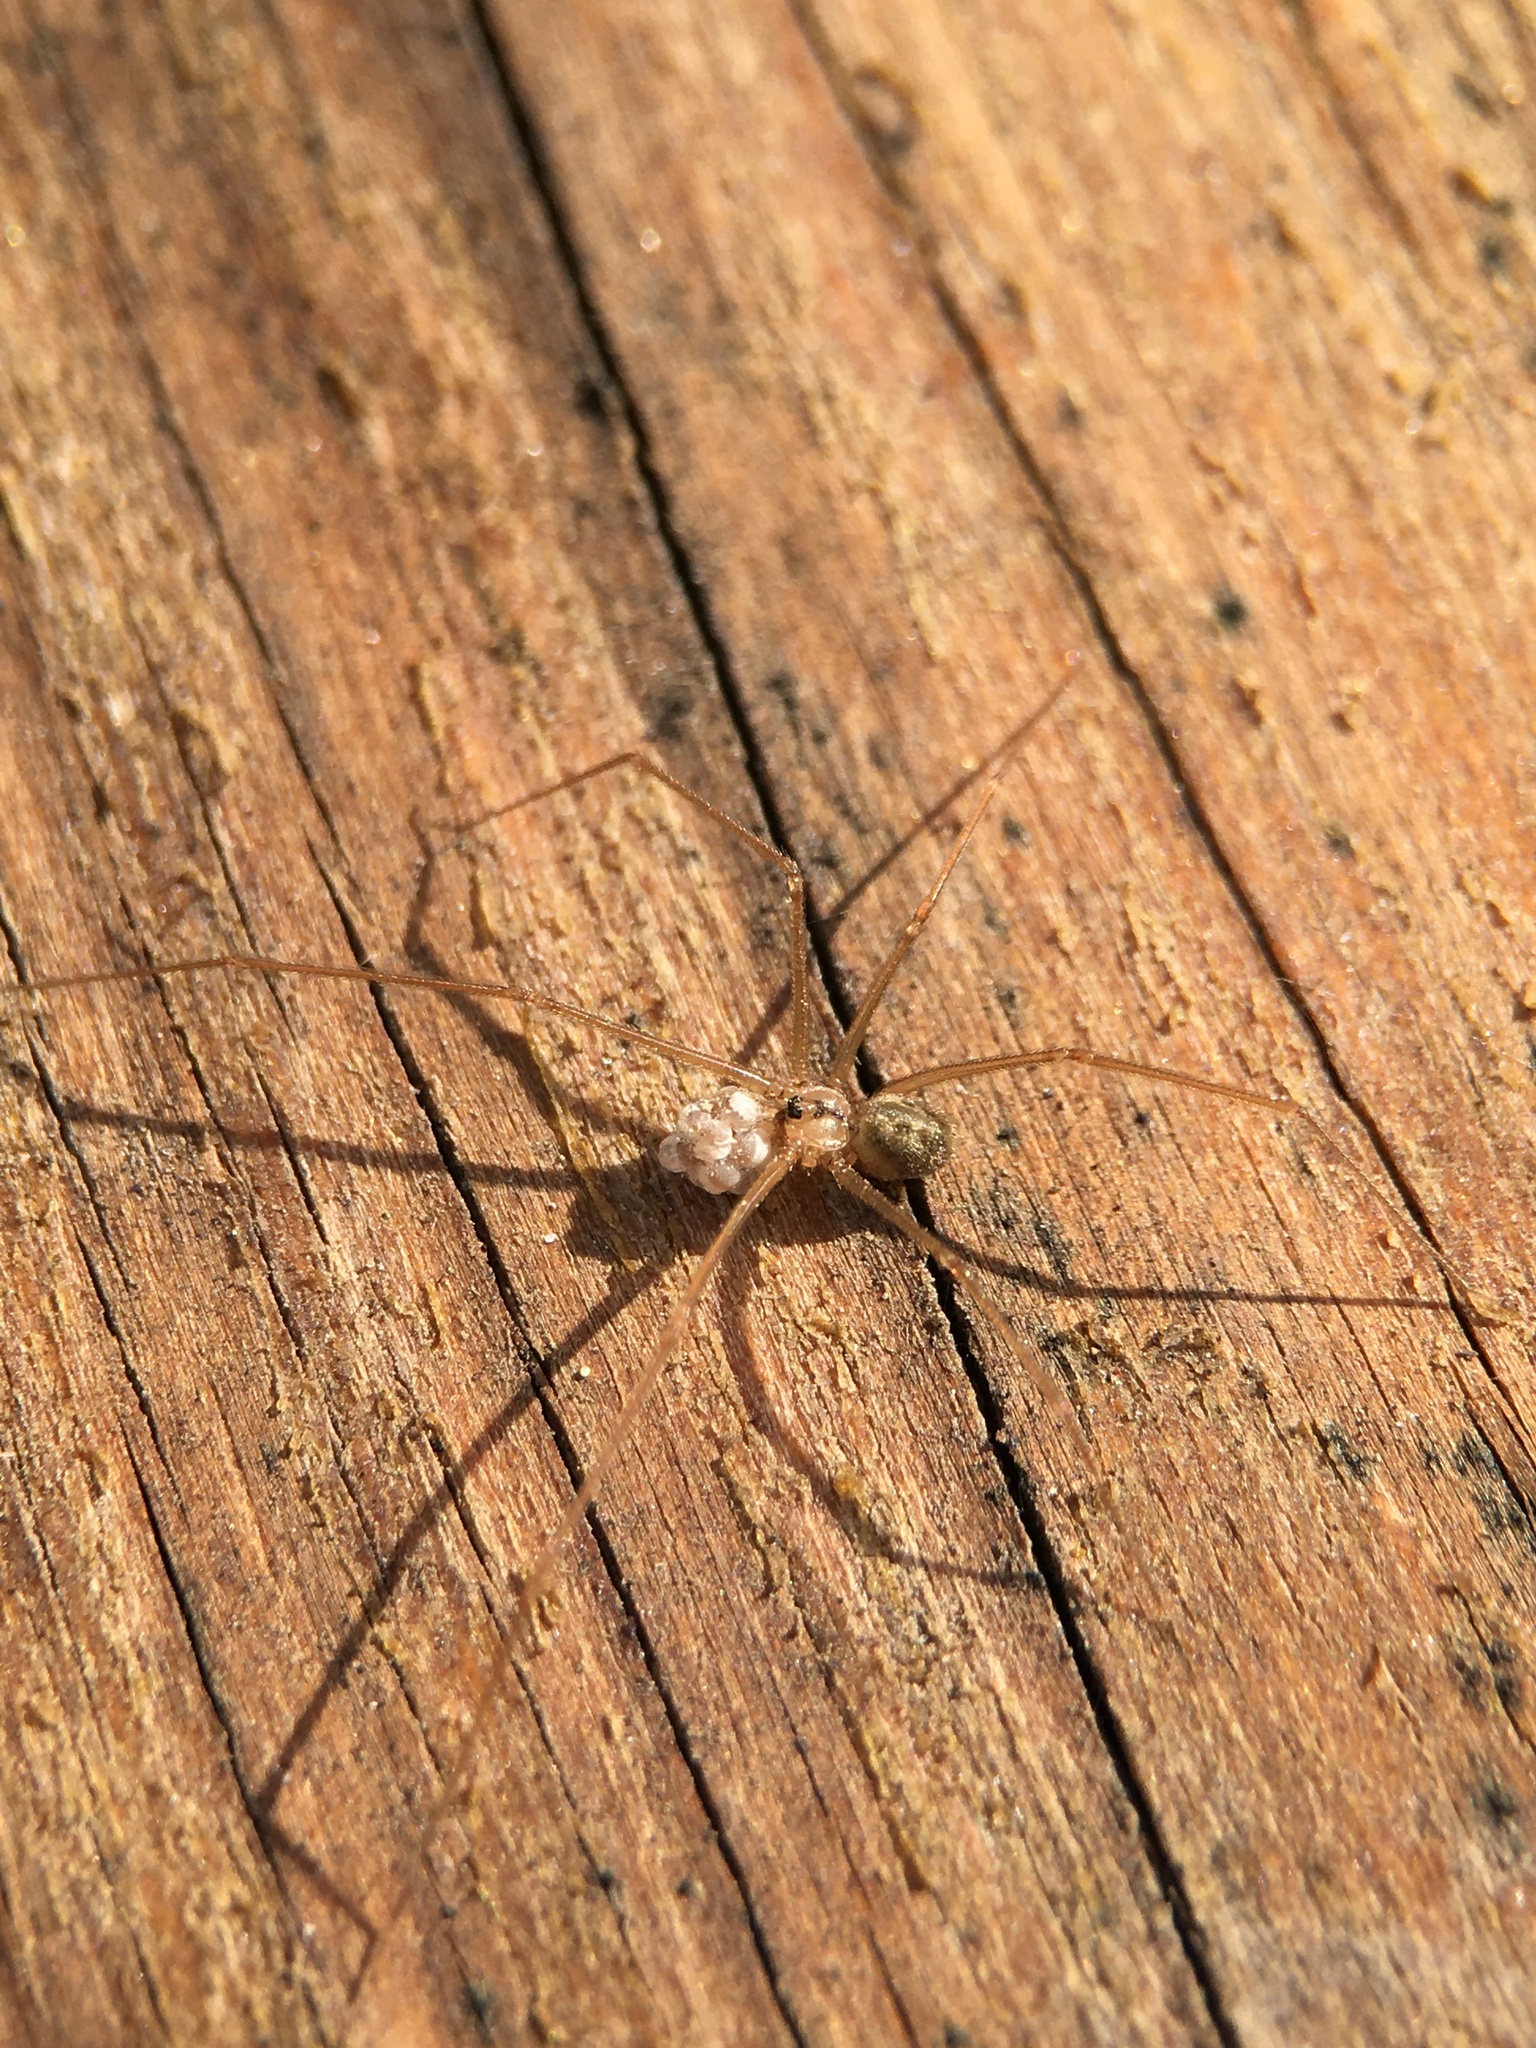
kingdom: Animalia
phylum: Arthropoda
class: Arachnida
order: Araneae
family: Pholcidae
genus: Psilochorus
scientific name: Psilochorus hesperus
